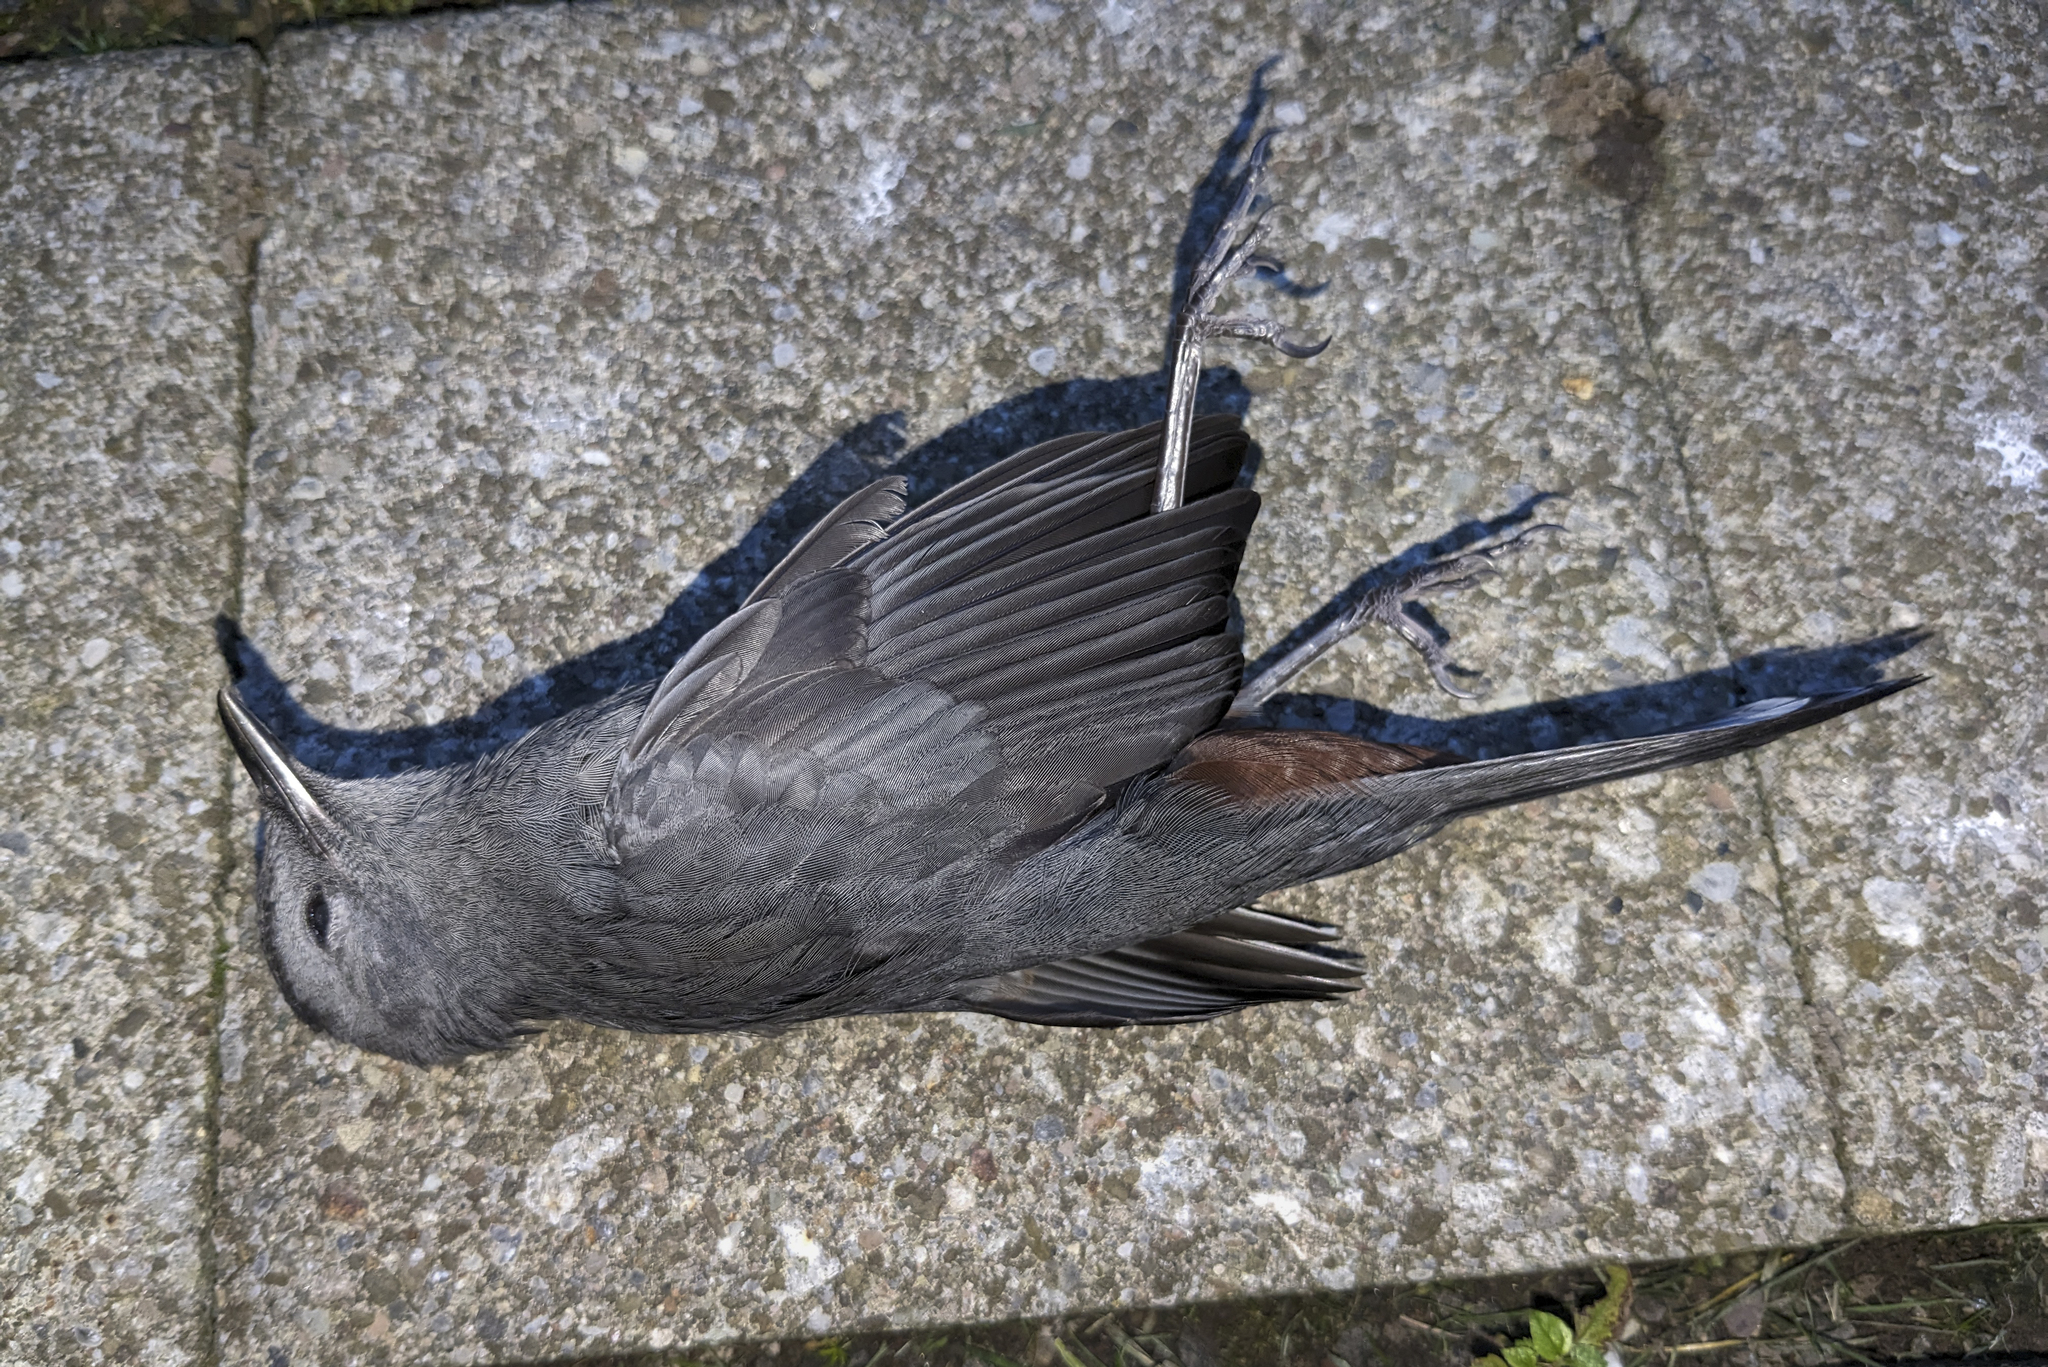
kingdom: Animalia
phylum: Chordata
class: Aves
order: Passeriformes
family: Mimidae
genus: Dumetella
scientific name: Dumetella carolinensis
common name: Gray catbird
